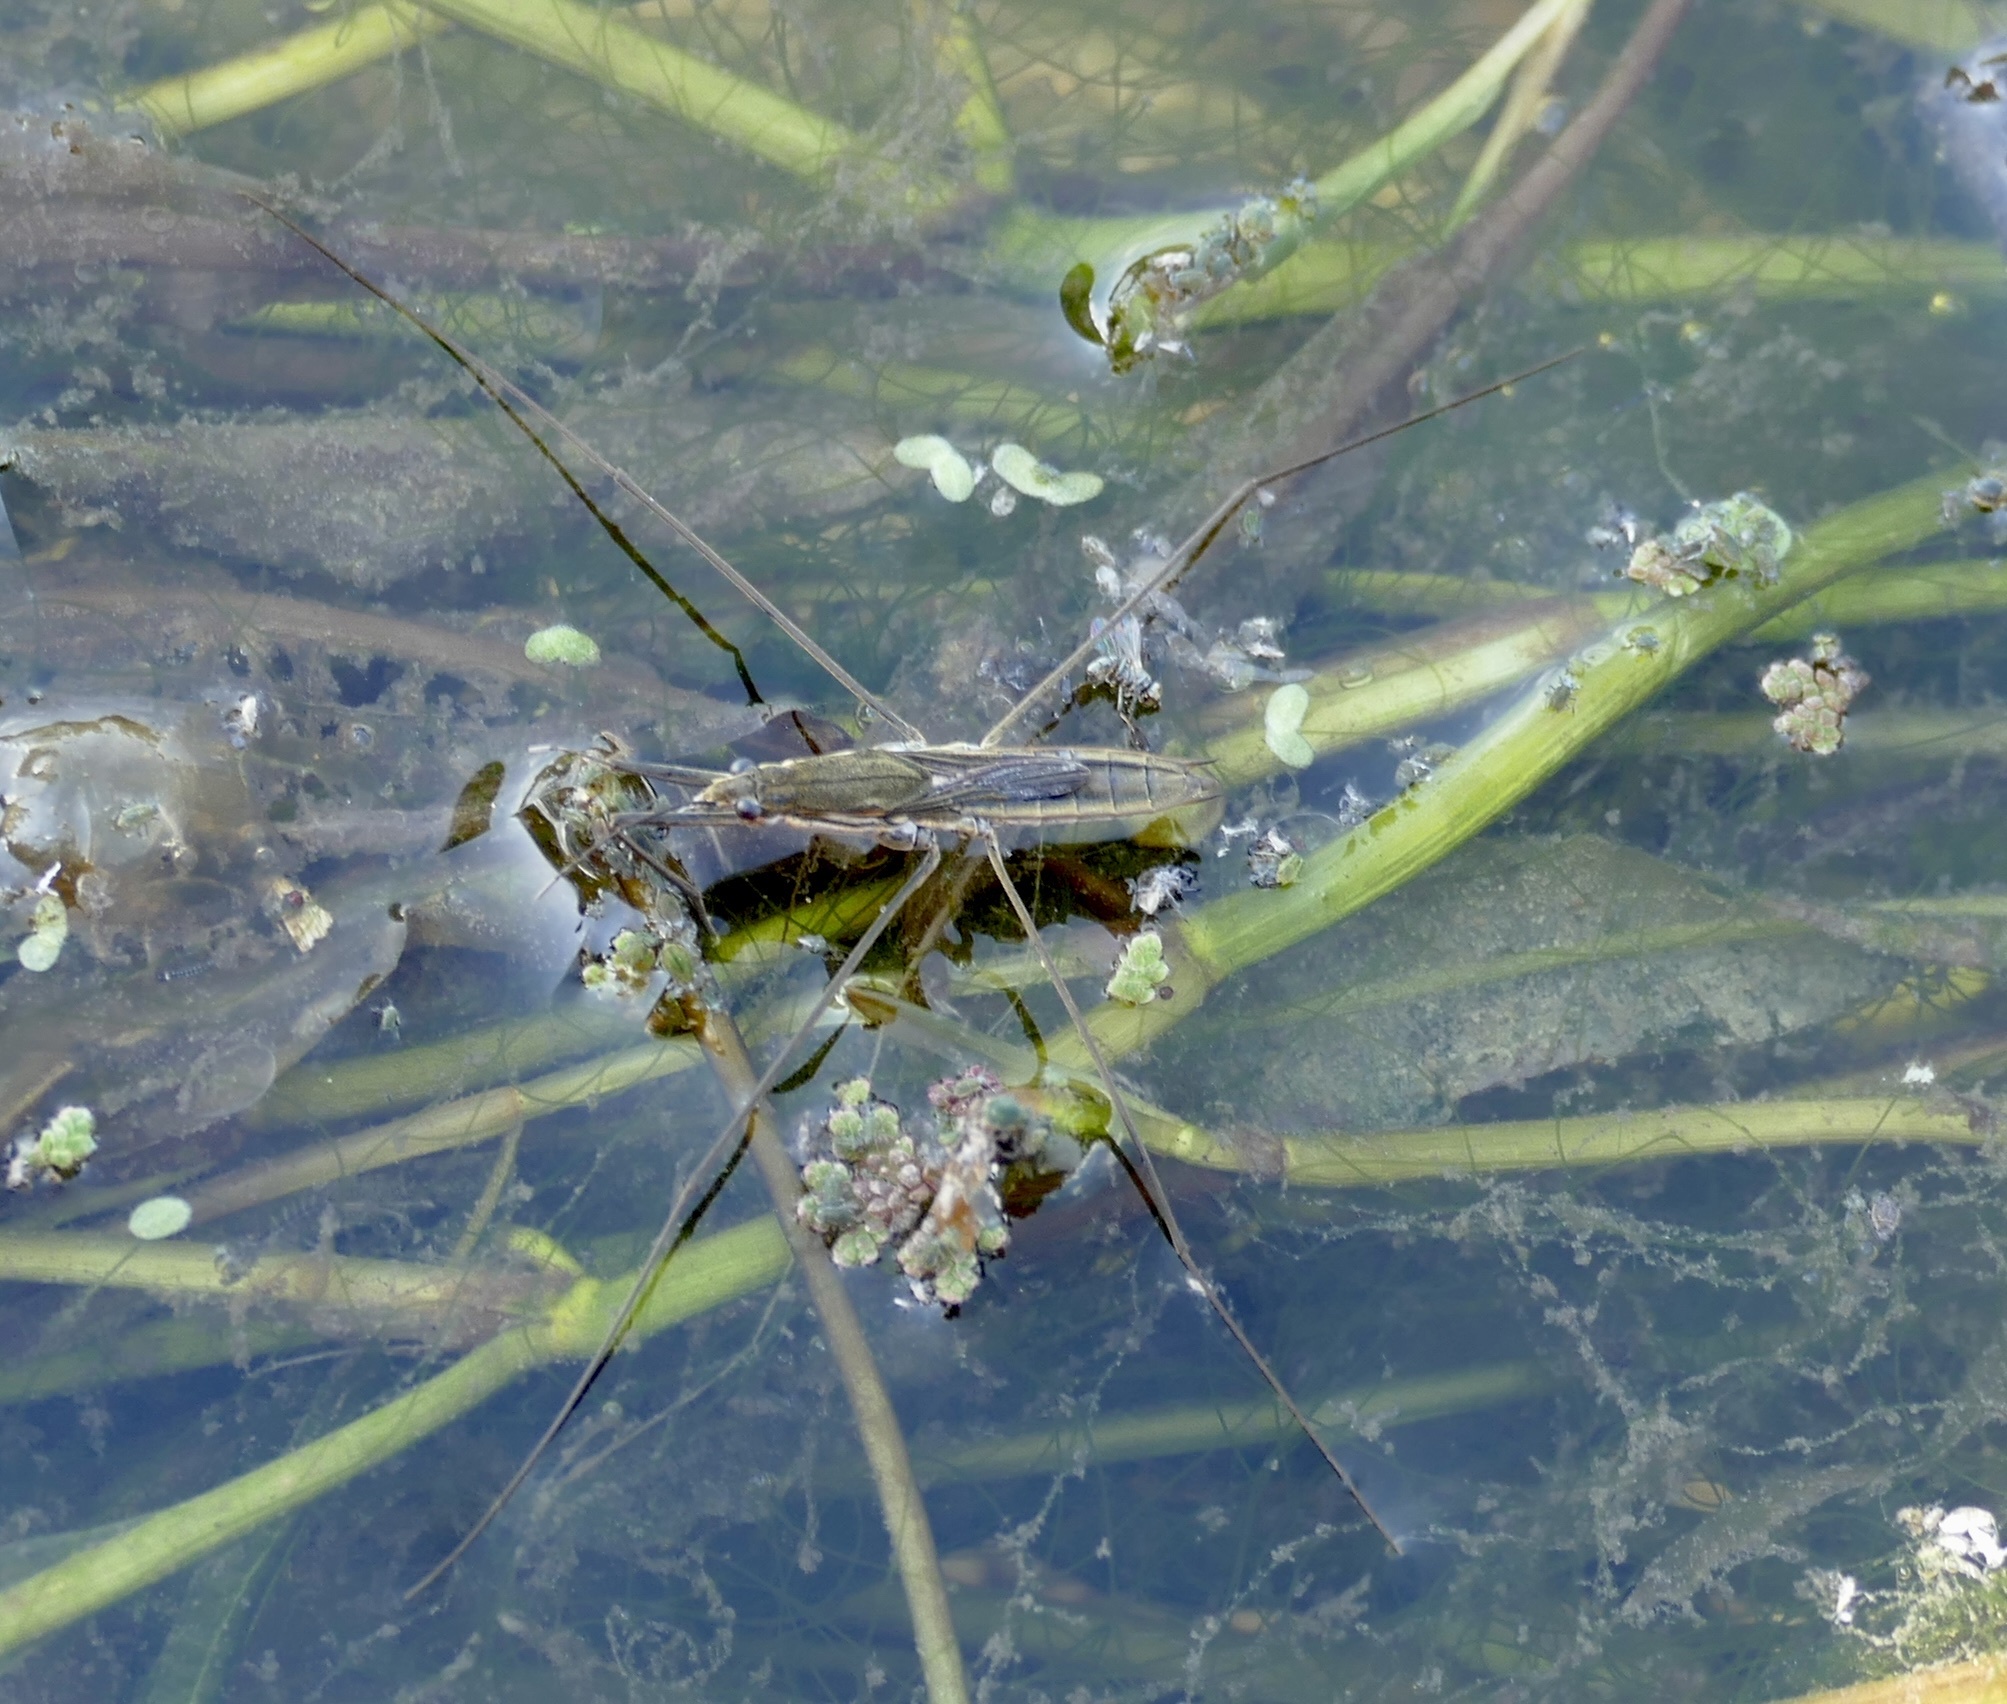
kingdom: Animalia
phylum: Arthropoda
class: Insecta
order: Hemiptera
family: Gerridae
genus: Aquarius
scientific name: Aquarius paludum
